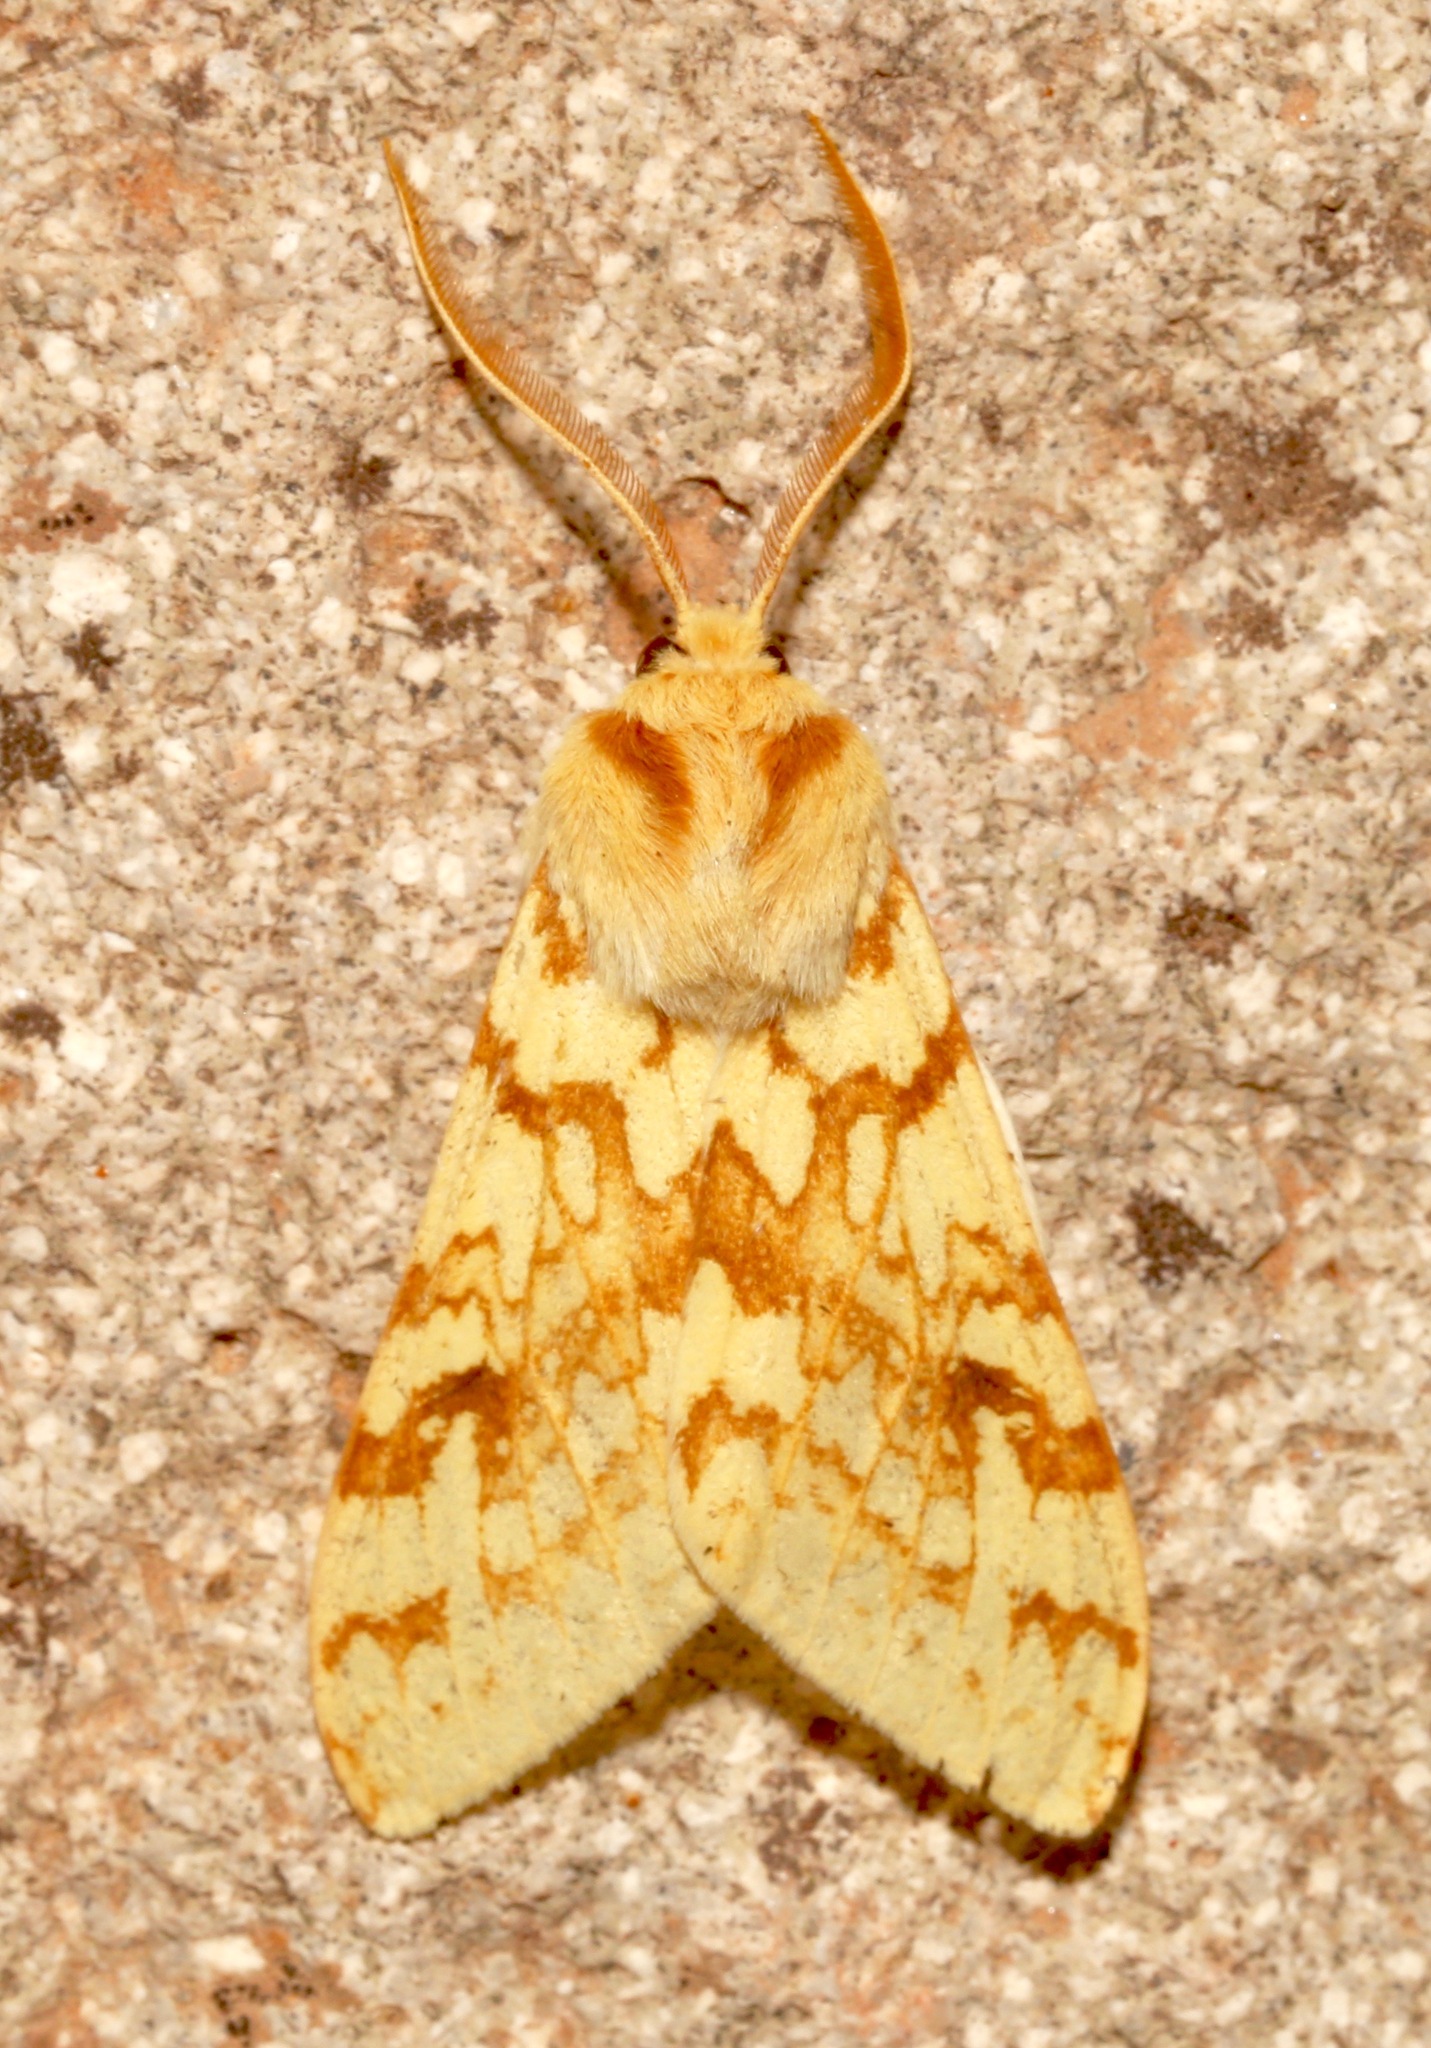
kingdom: Animalia
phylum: Arthropoda
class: Insecta
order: Lepidoptera
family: Erebidae
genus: Lophocampa
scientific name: Lophocampa maculata
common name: Spotted tussock moth
